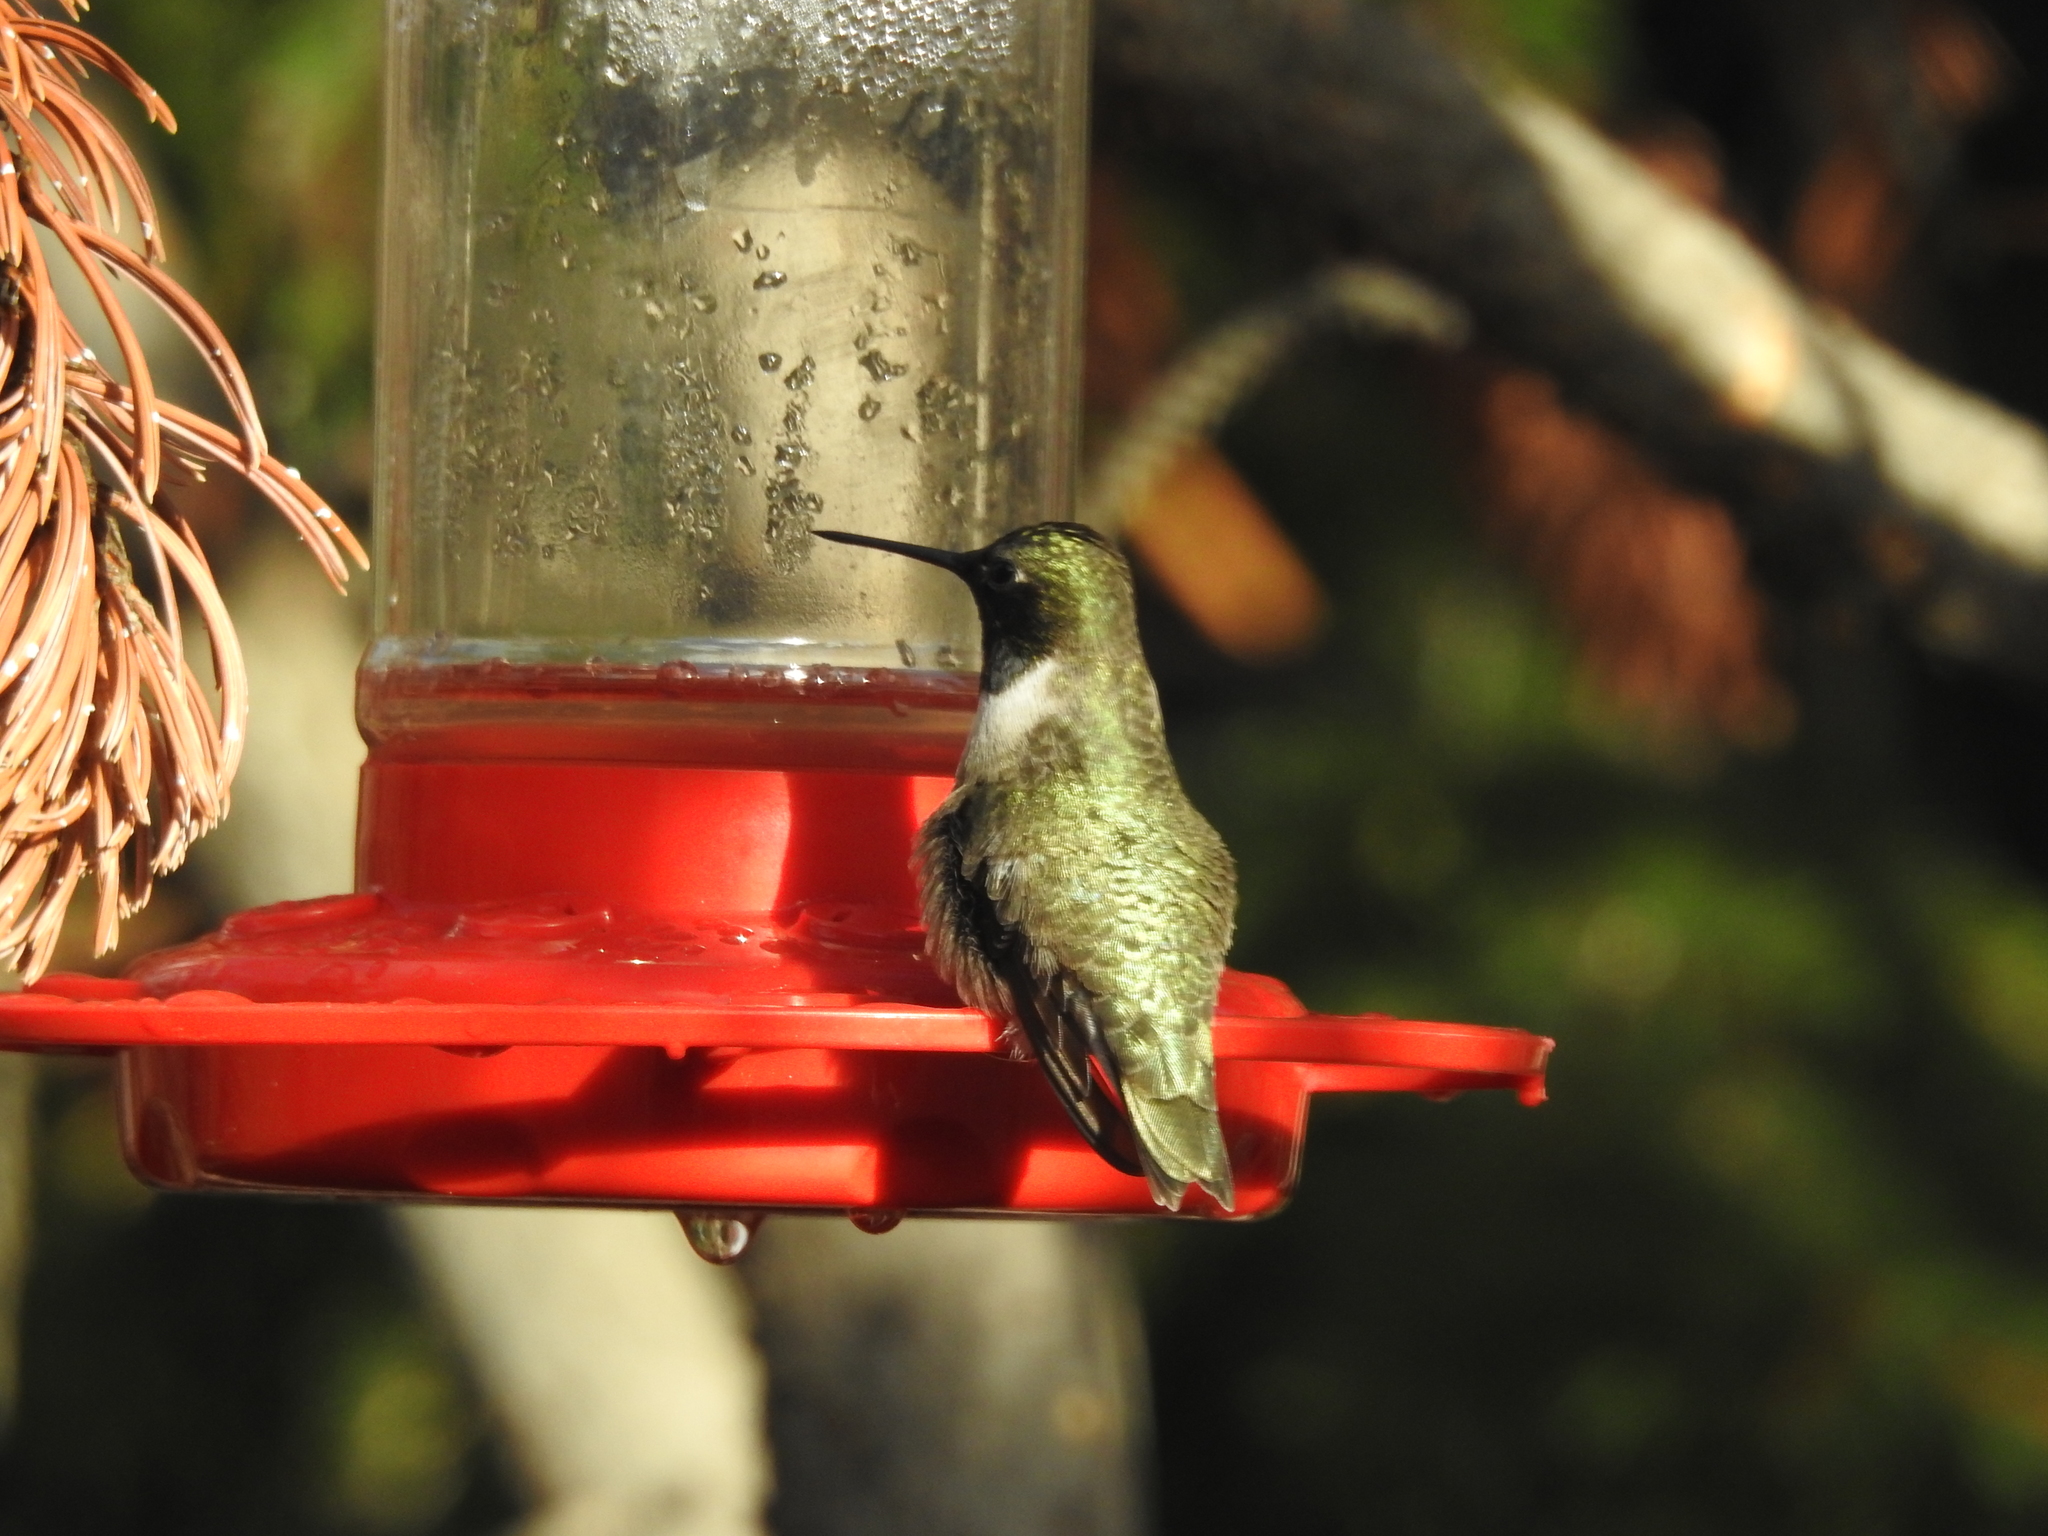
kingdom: Animalia
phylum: Chordata
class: Aves
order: Apodiformes
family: Trochilidae
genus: Archilochus
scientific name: Archilochus alexandri
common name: Black-chinned hummingbird
